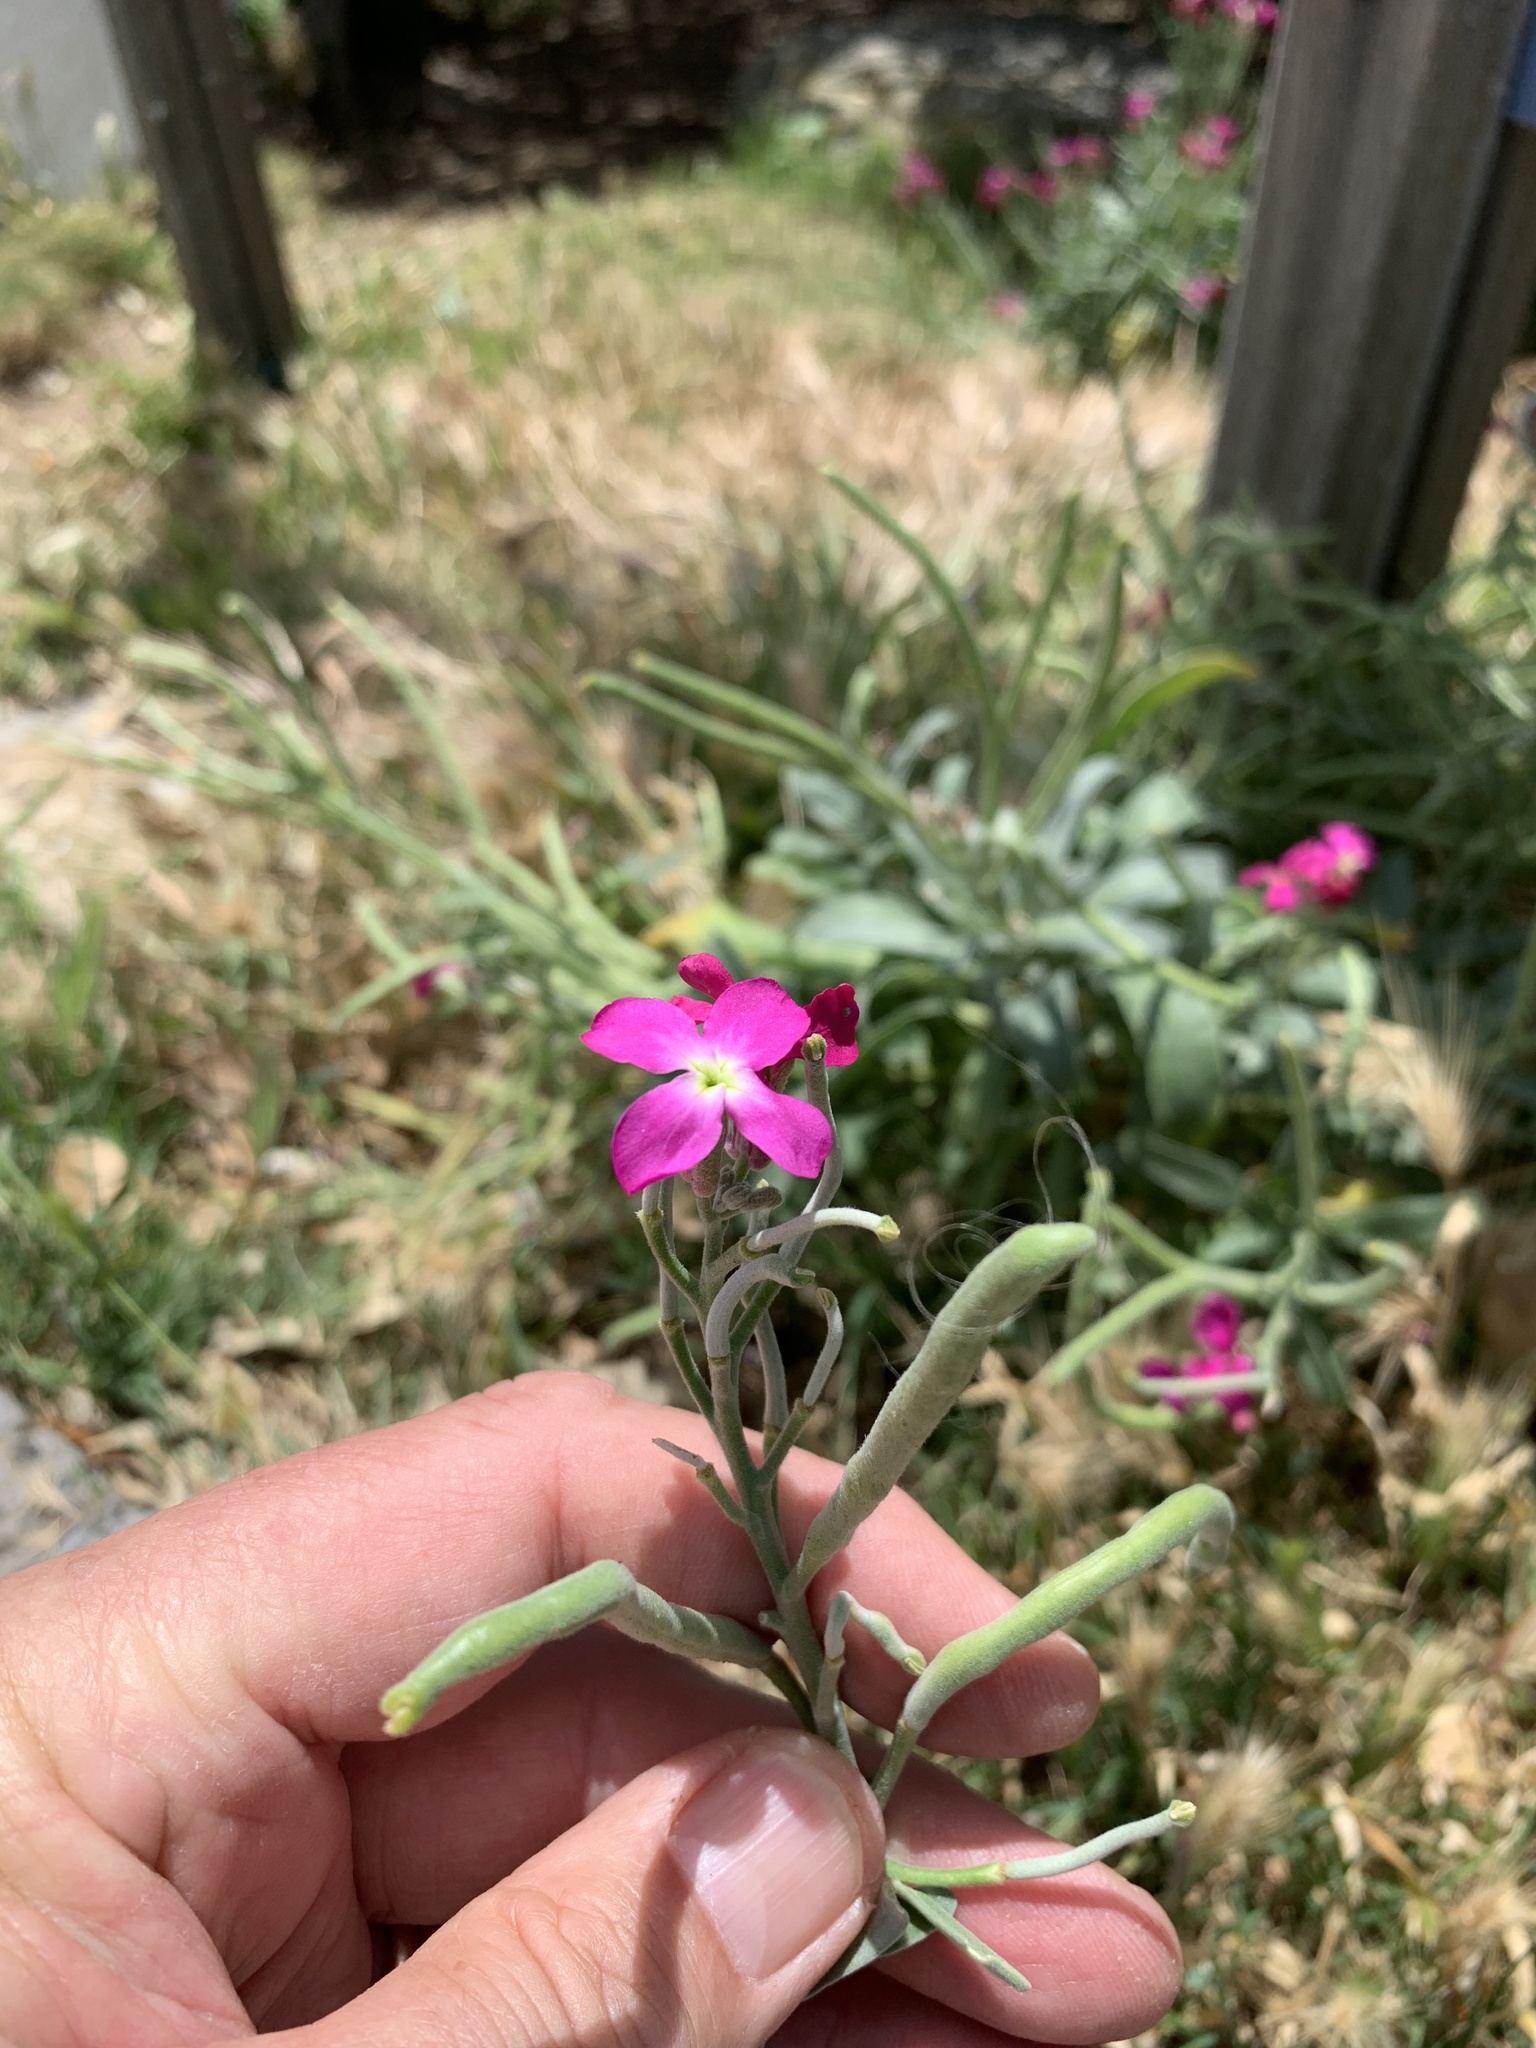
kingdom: Plantae
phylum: Tracheophyta
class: Magnoliopsida
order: Brassicales
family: Brassicaceae
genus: Matthiola
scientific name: Matthiola incana
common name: Hoary stock
